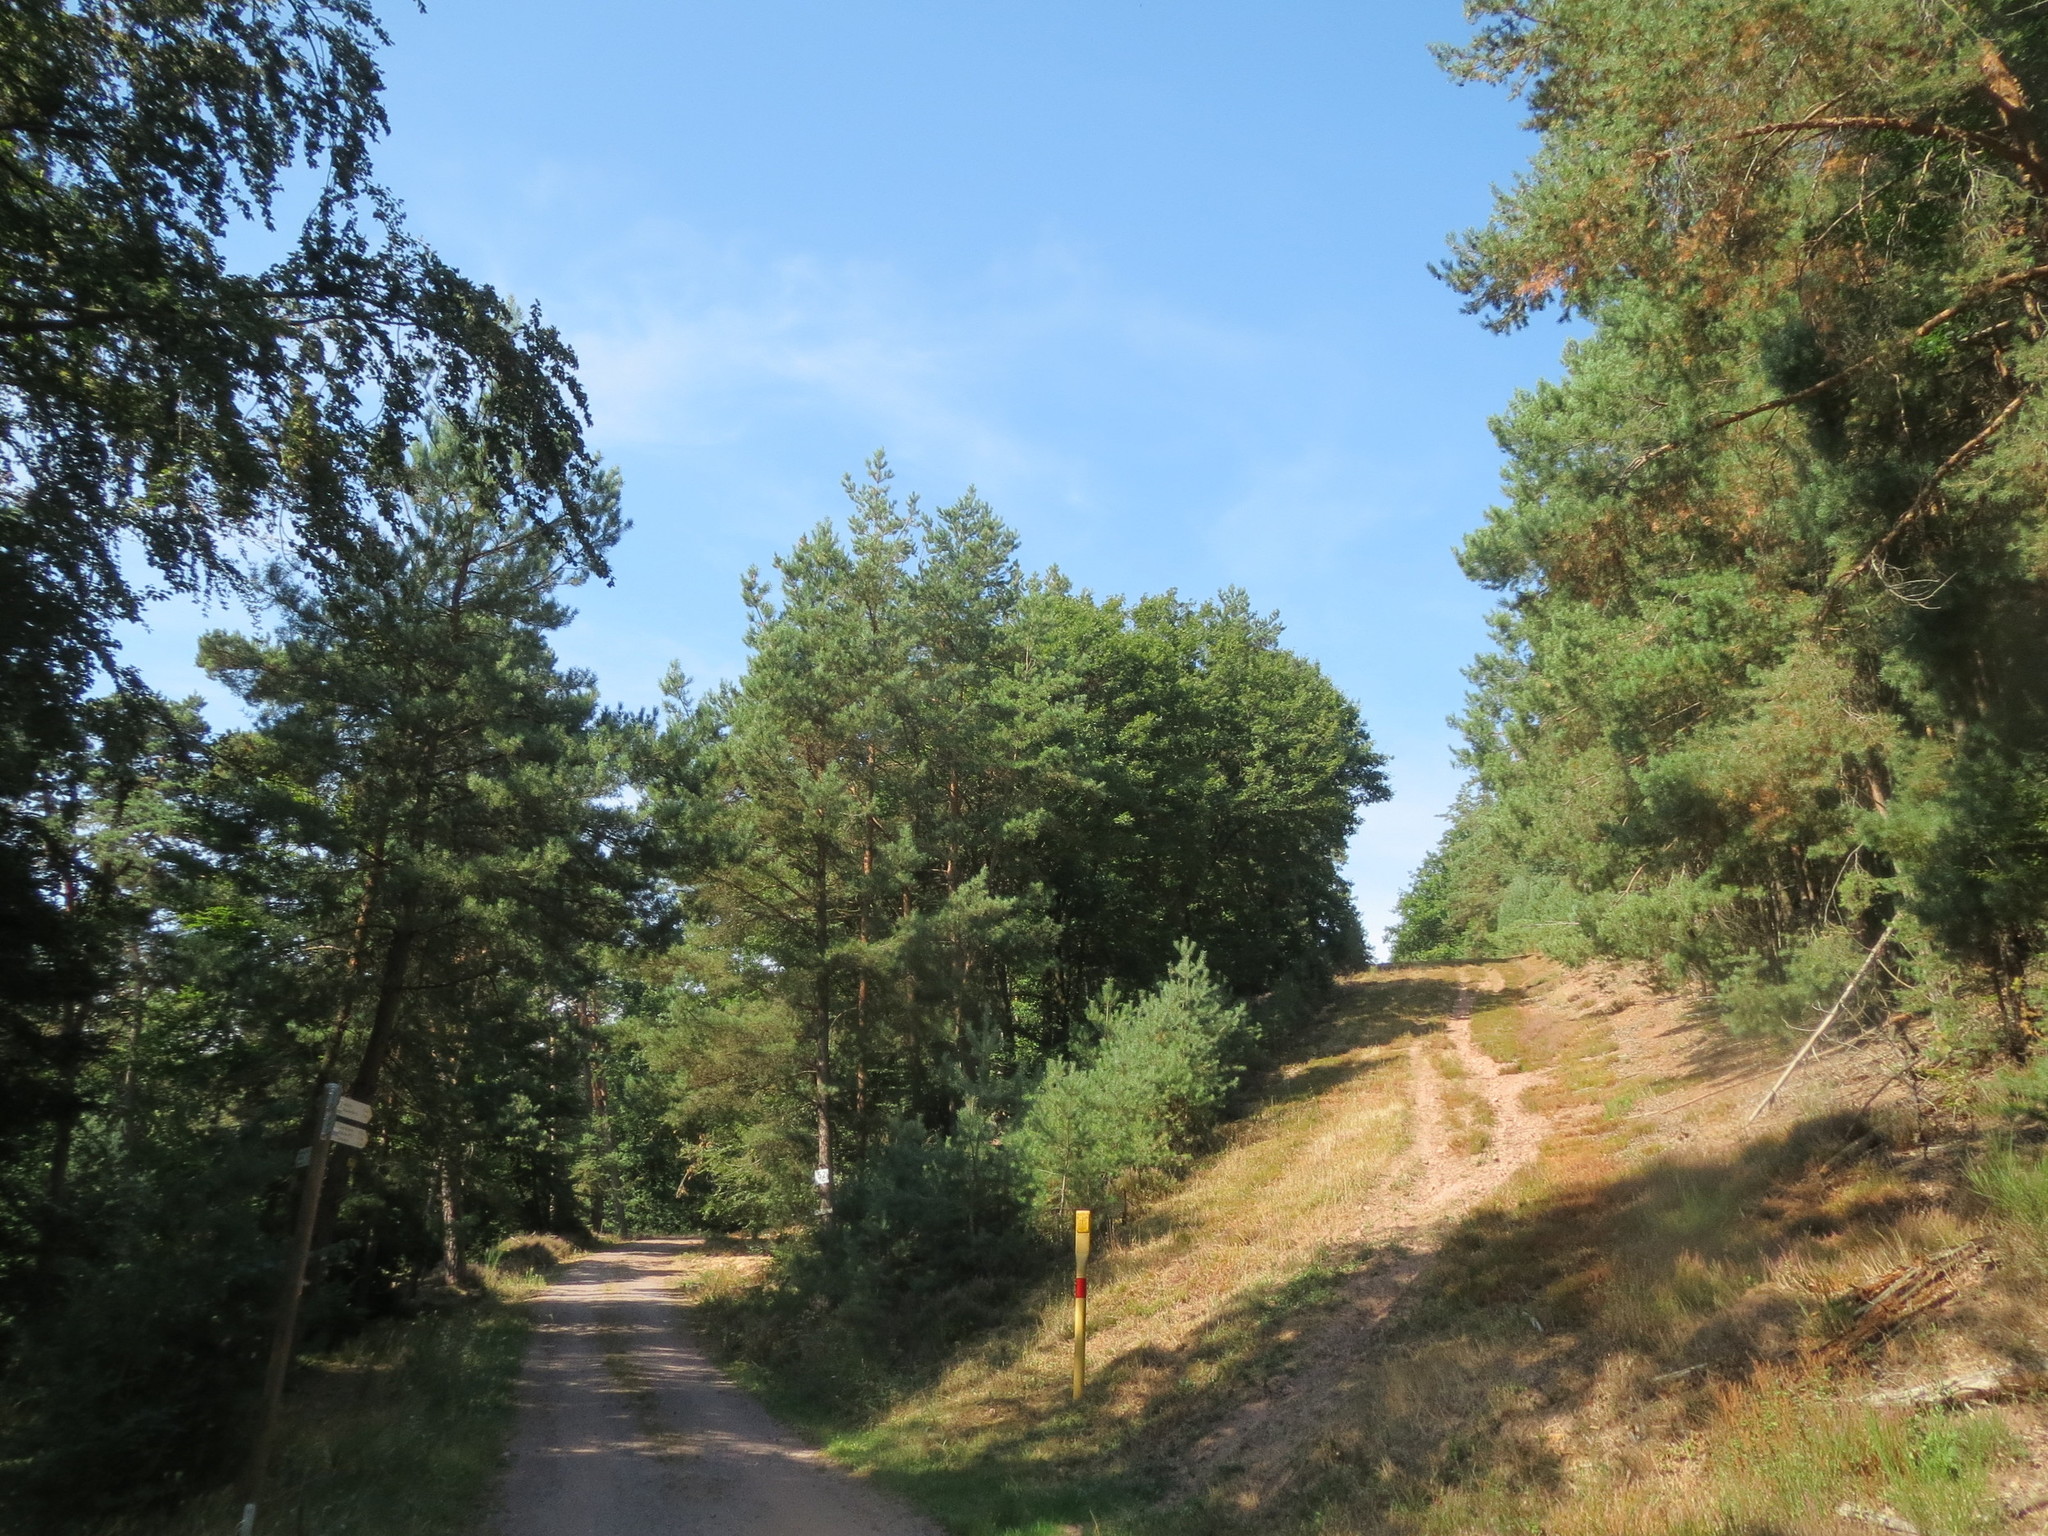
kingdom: Plantae
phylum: Tracheophyta
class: Pinopsida
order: Pinales
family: Pinaceae
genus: Pinus
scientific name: Pinus sylvestris
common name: Scots pine
